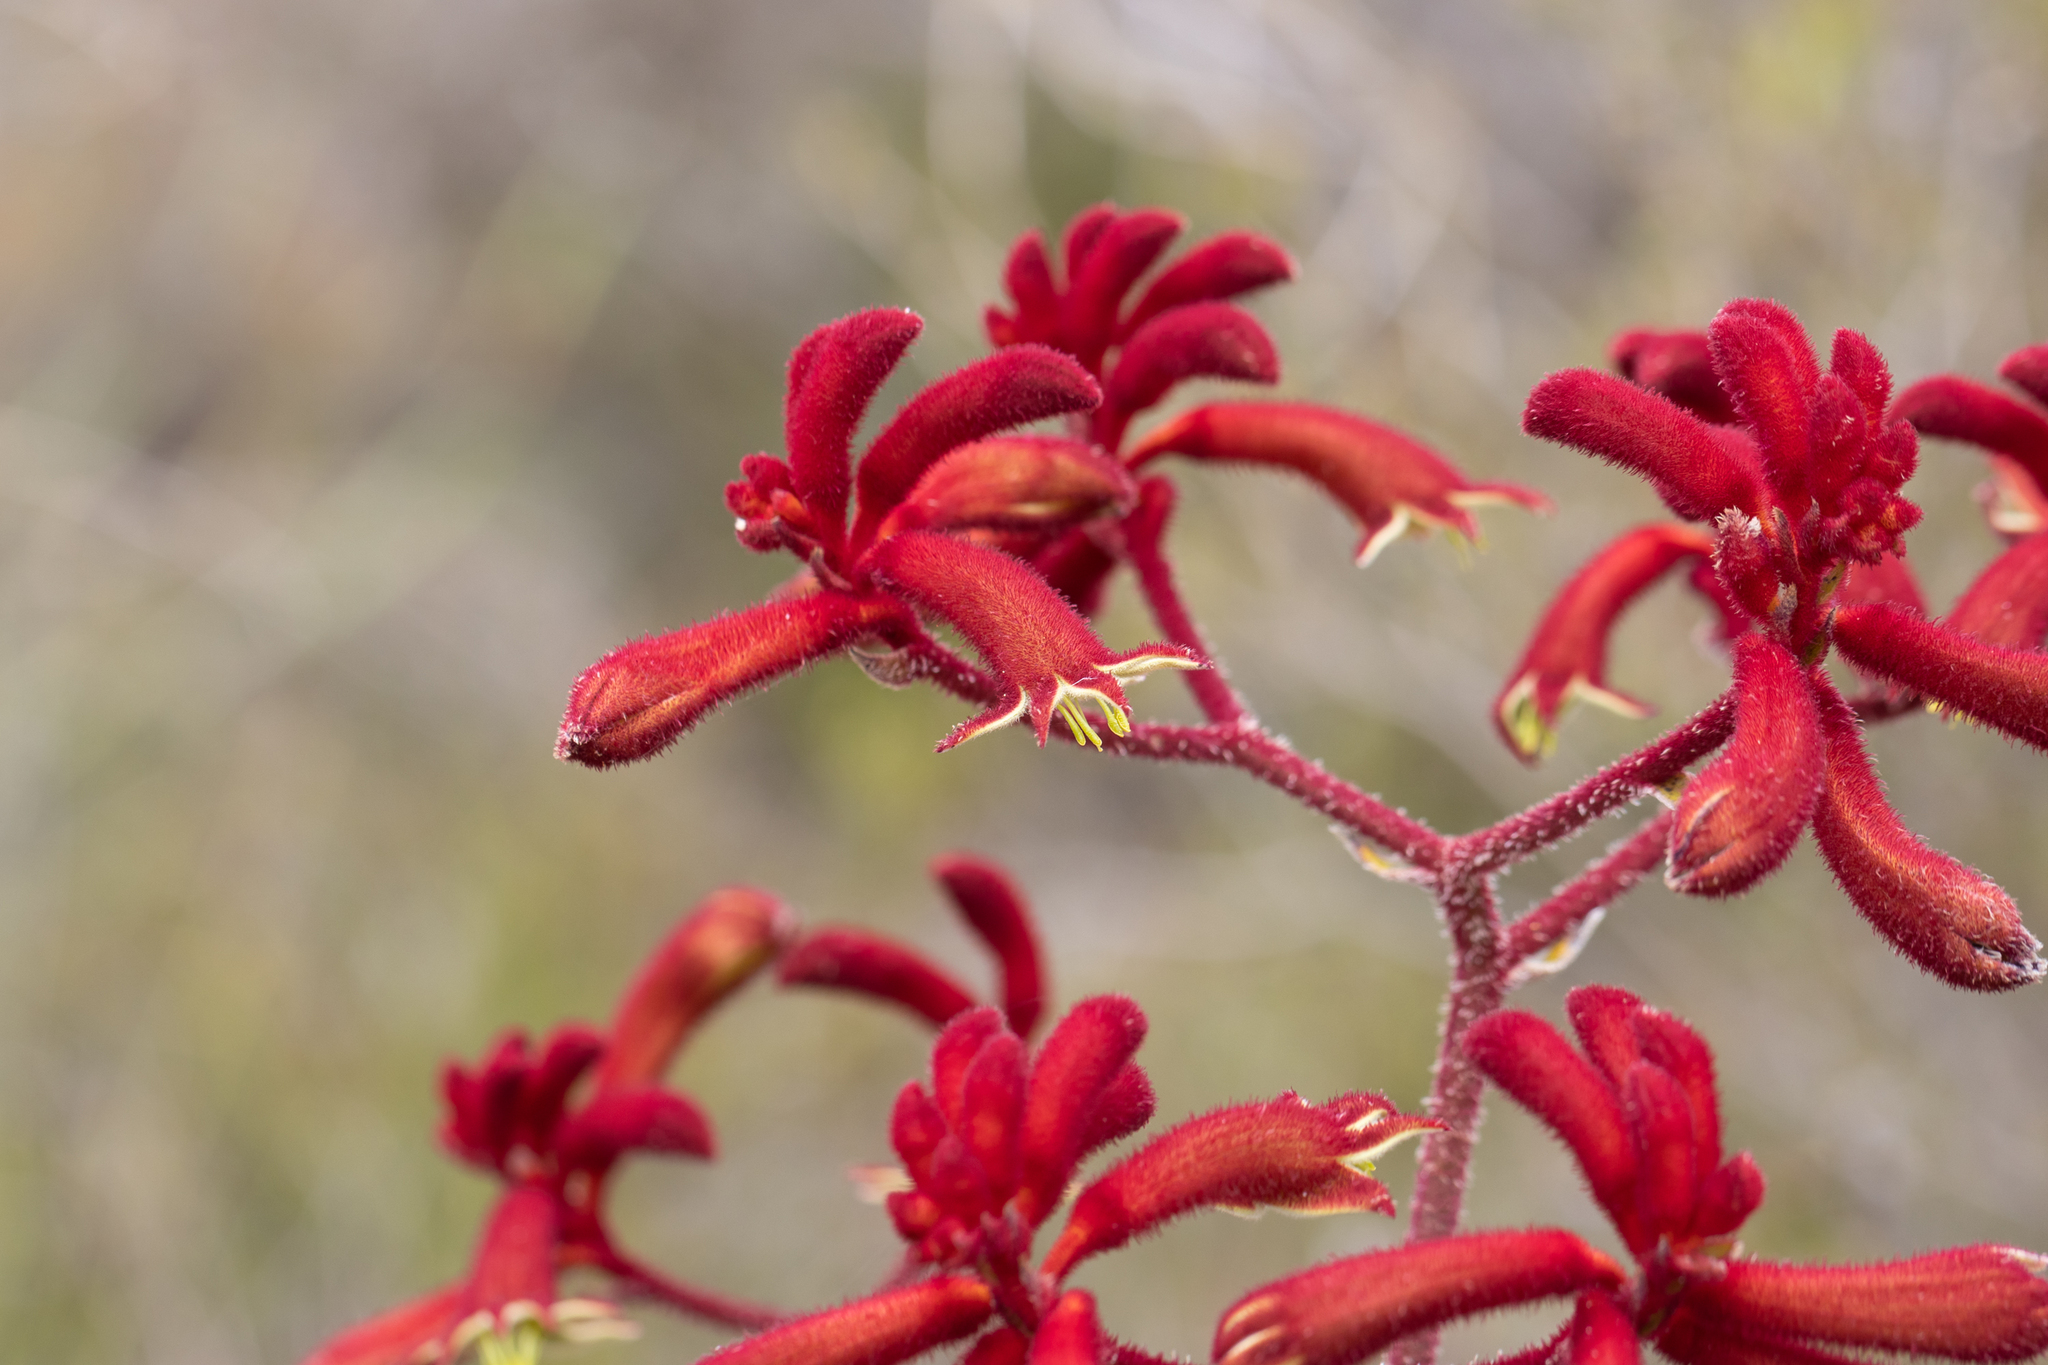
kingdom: Plantae
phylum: Tracheophyta
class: Liliopsida
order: Commelinales
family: Haemodoraceae
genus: Anigozanthos
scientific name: Anigozanthos rufus
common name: Red kangaroo-paw
